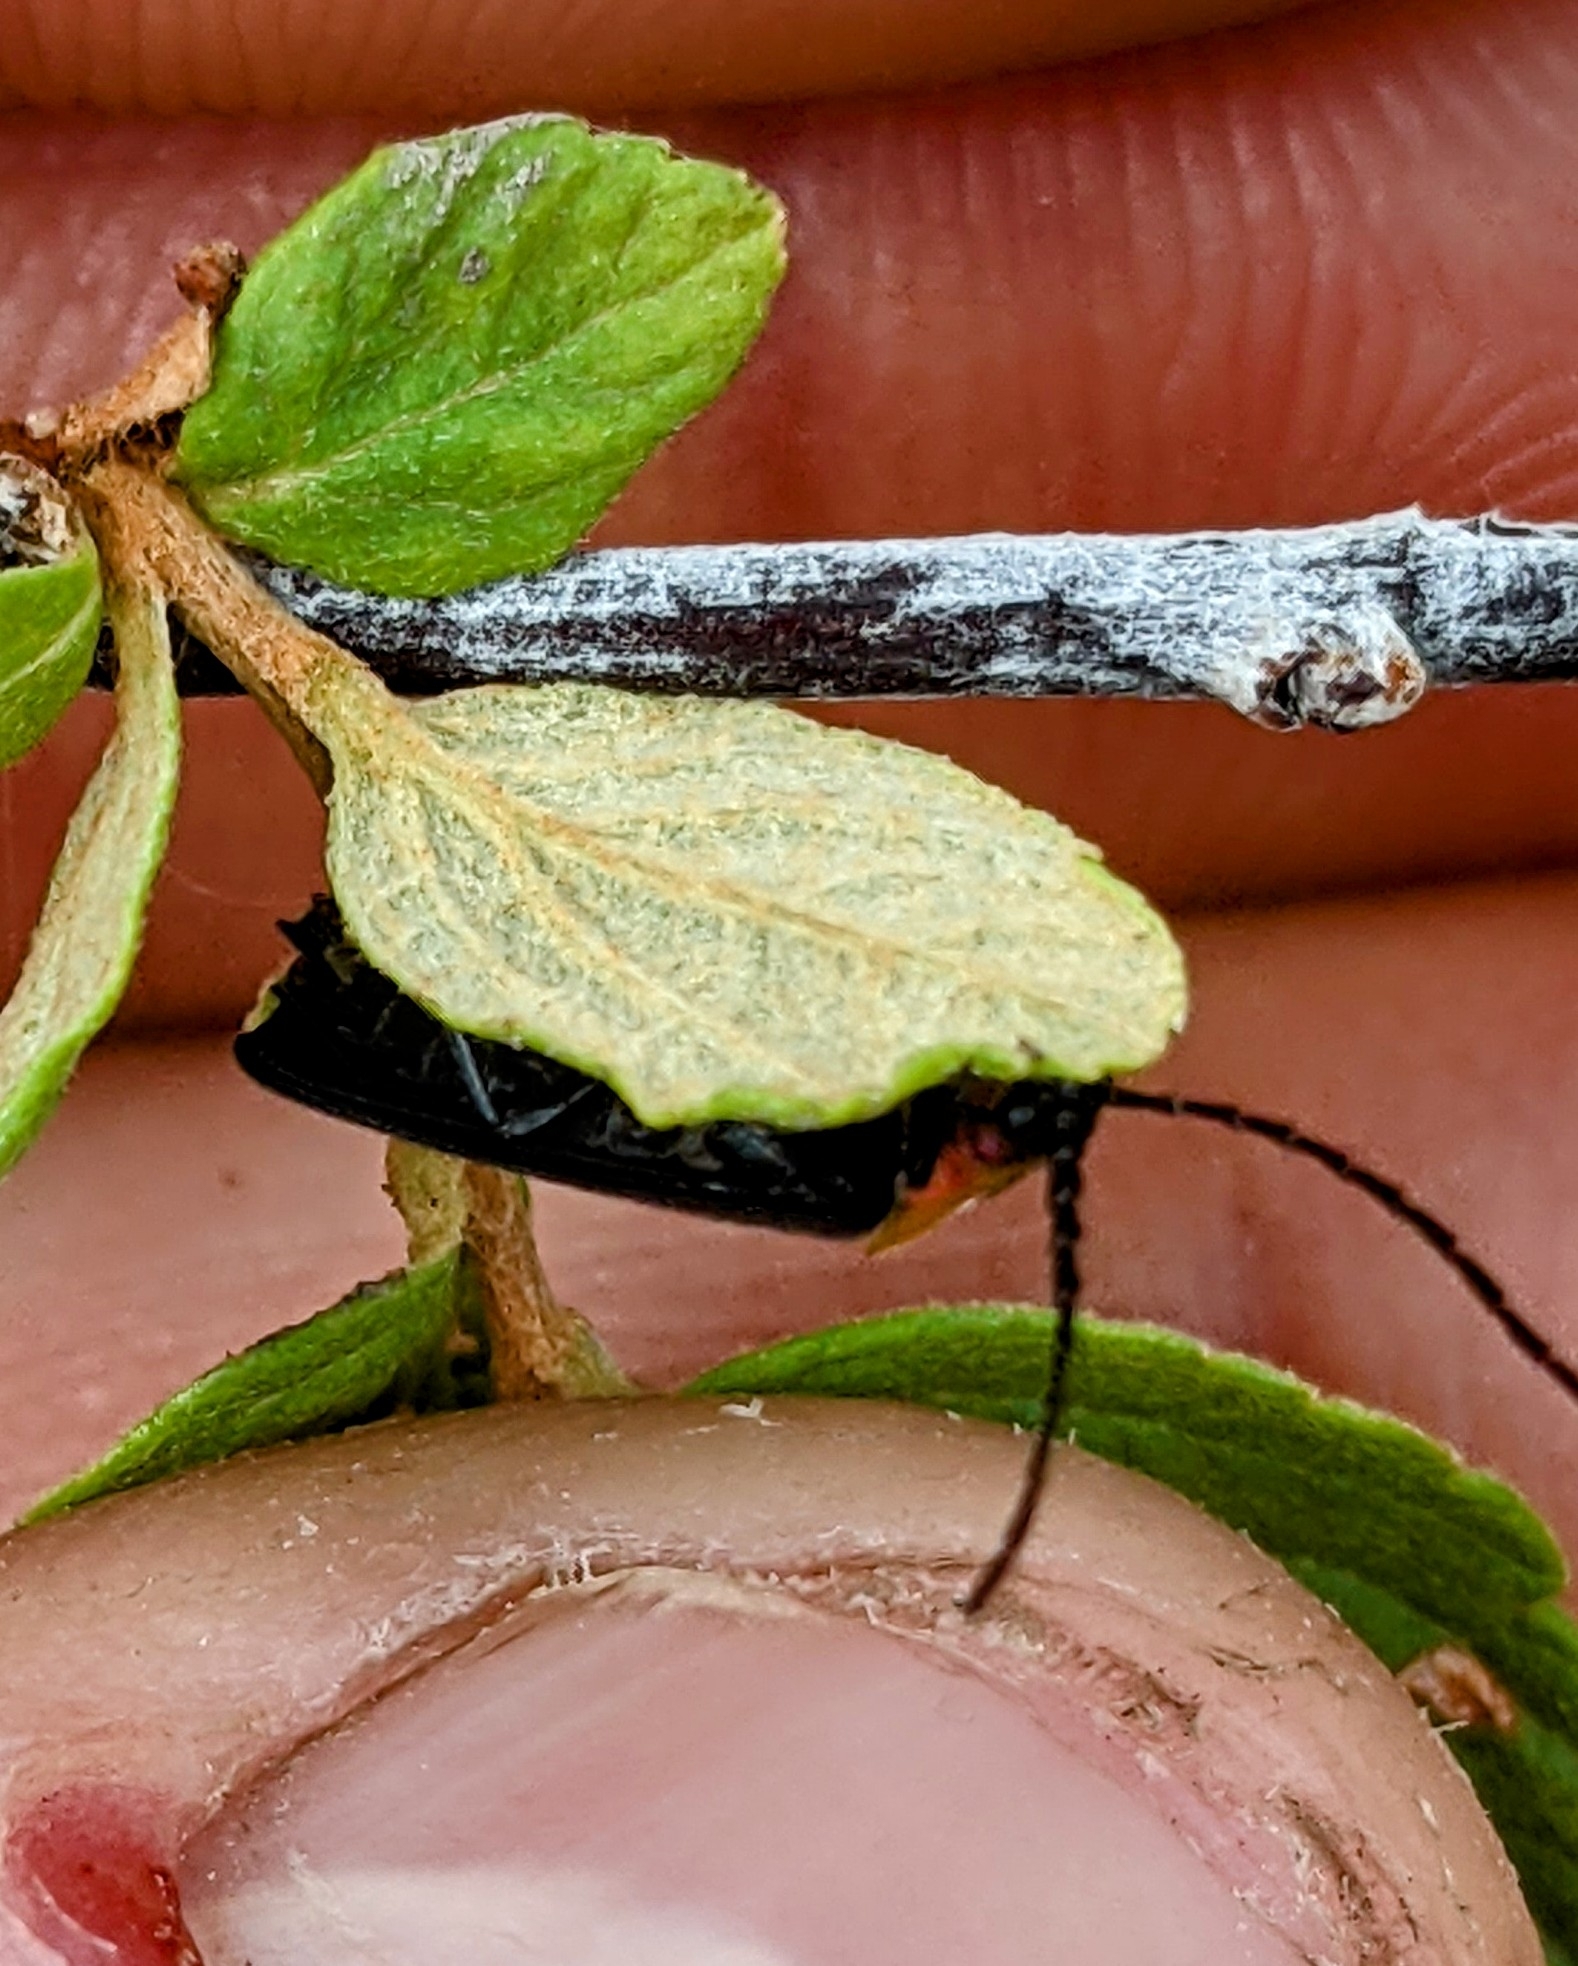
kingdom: Animalia
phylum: Arthropoda
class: Insecta
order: Coleoptera
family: Lampyridae
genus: Lucidota
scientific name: Lucidota atra
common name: Black firefly
